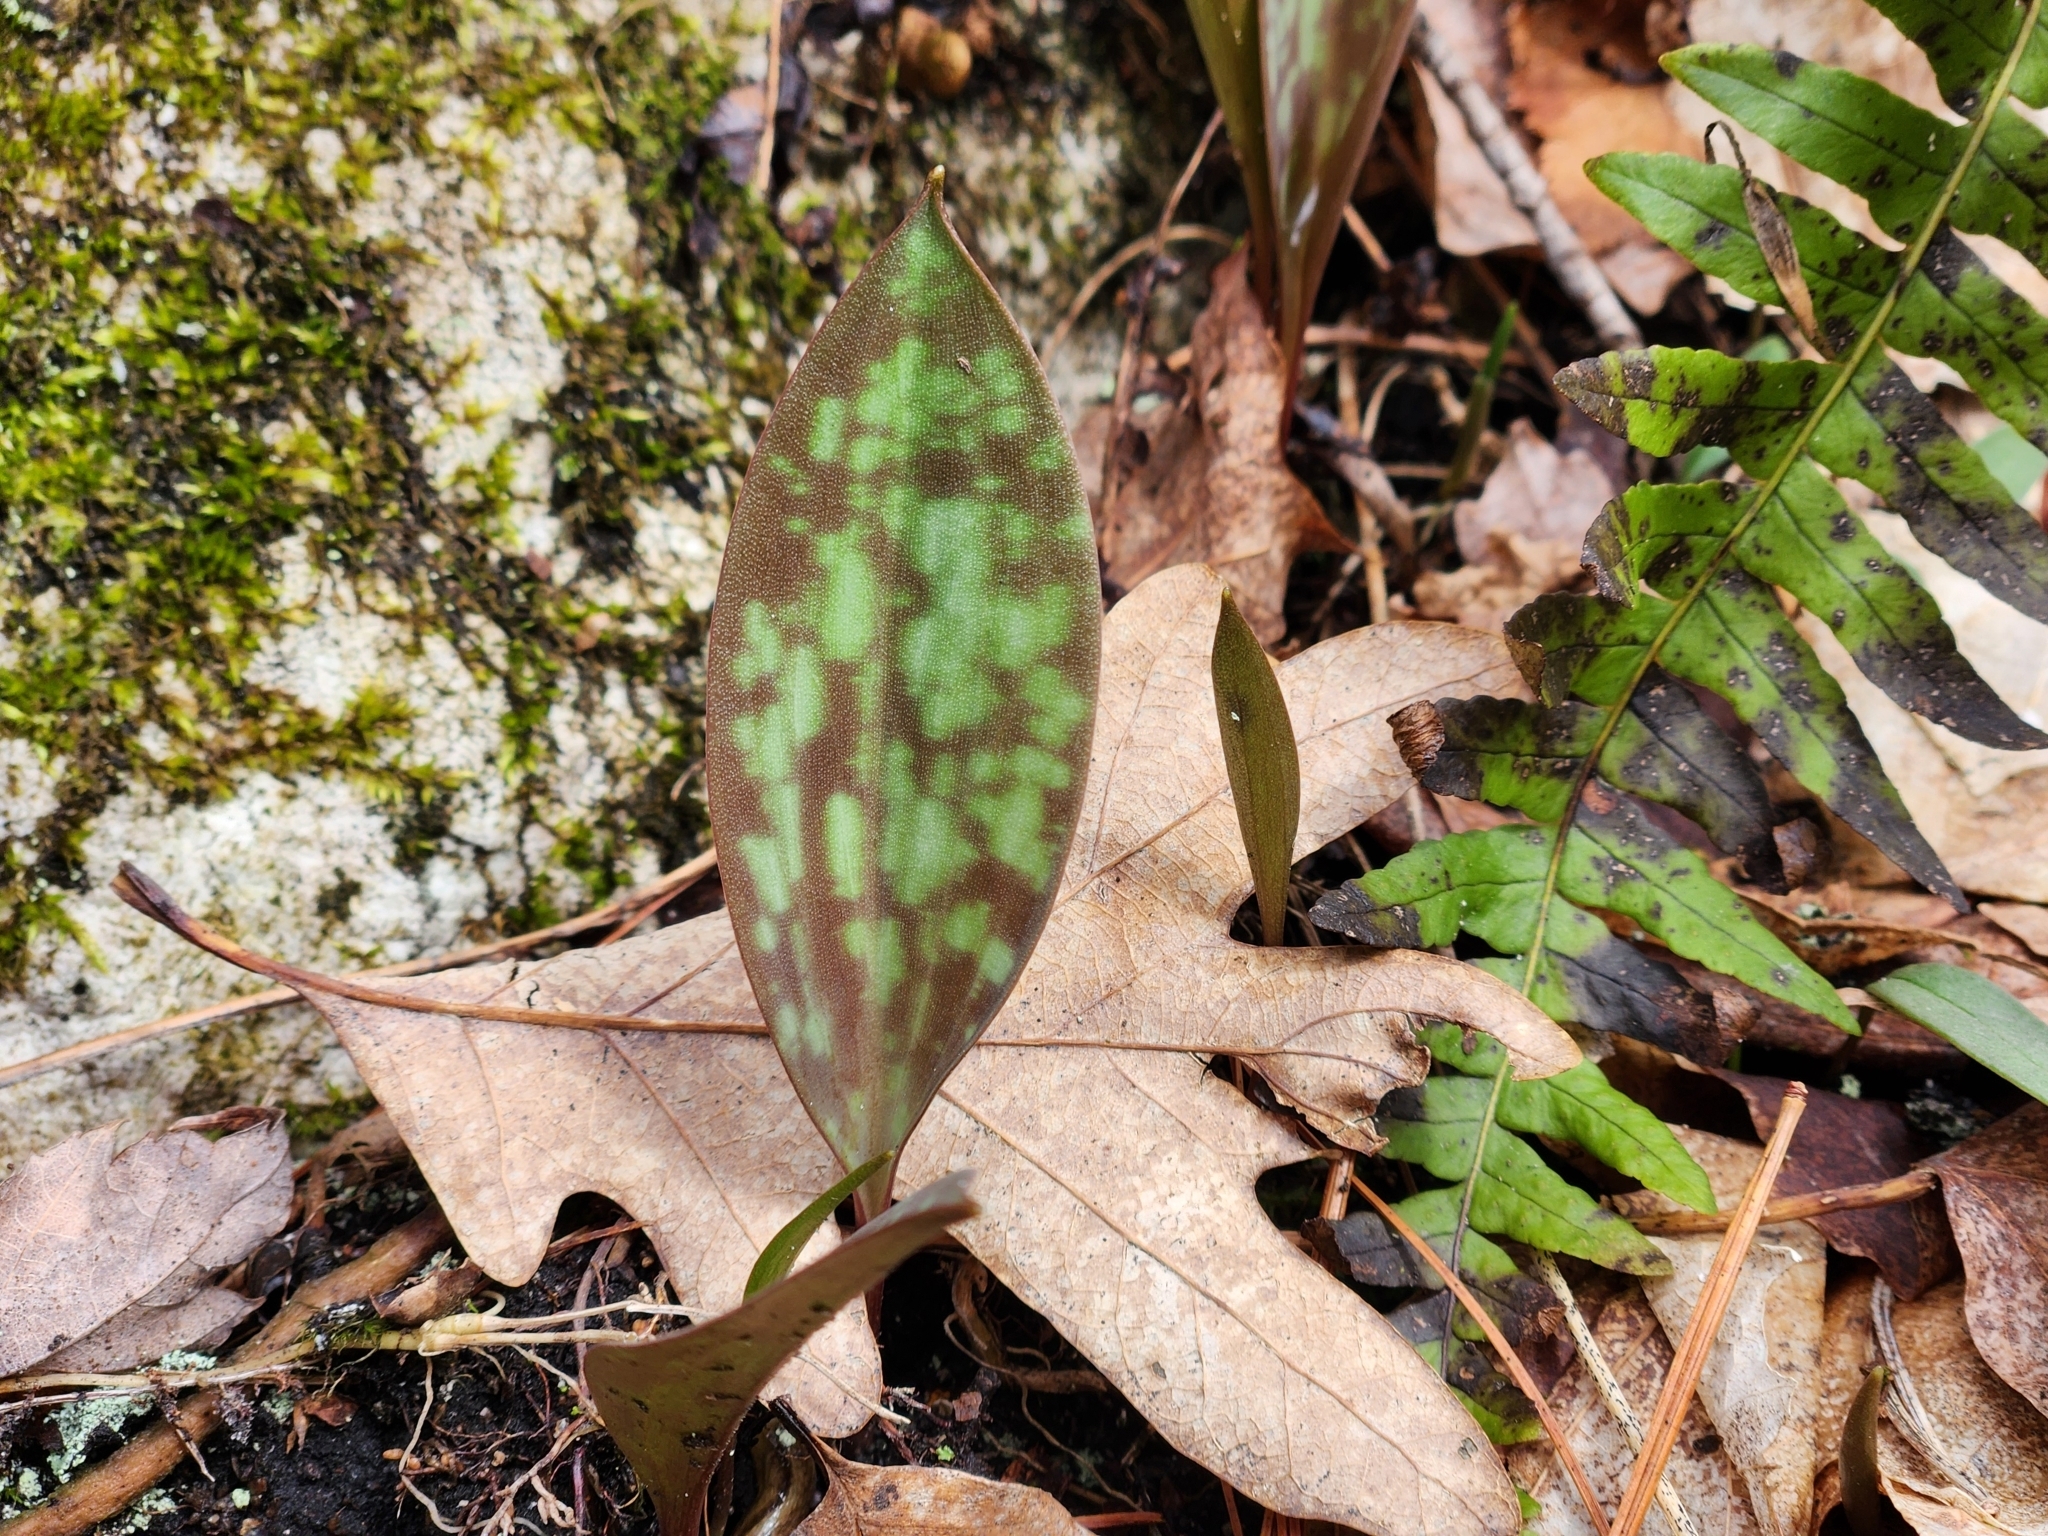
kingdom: Plantae
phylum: Tracheophyta
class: Liliopsida
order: Liliales
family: Liliaceae
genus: Erythronium
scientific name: Erythronium americanum
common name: Yellow adder's-tongue
